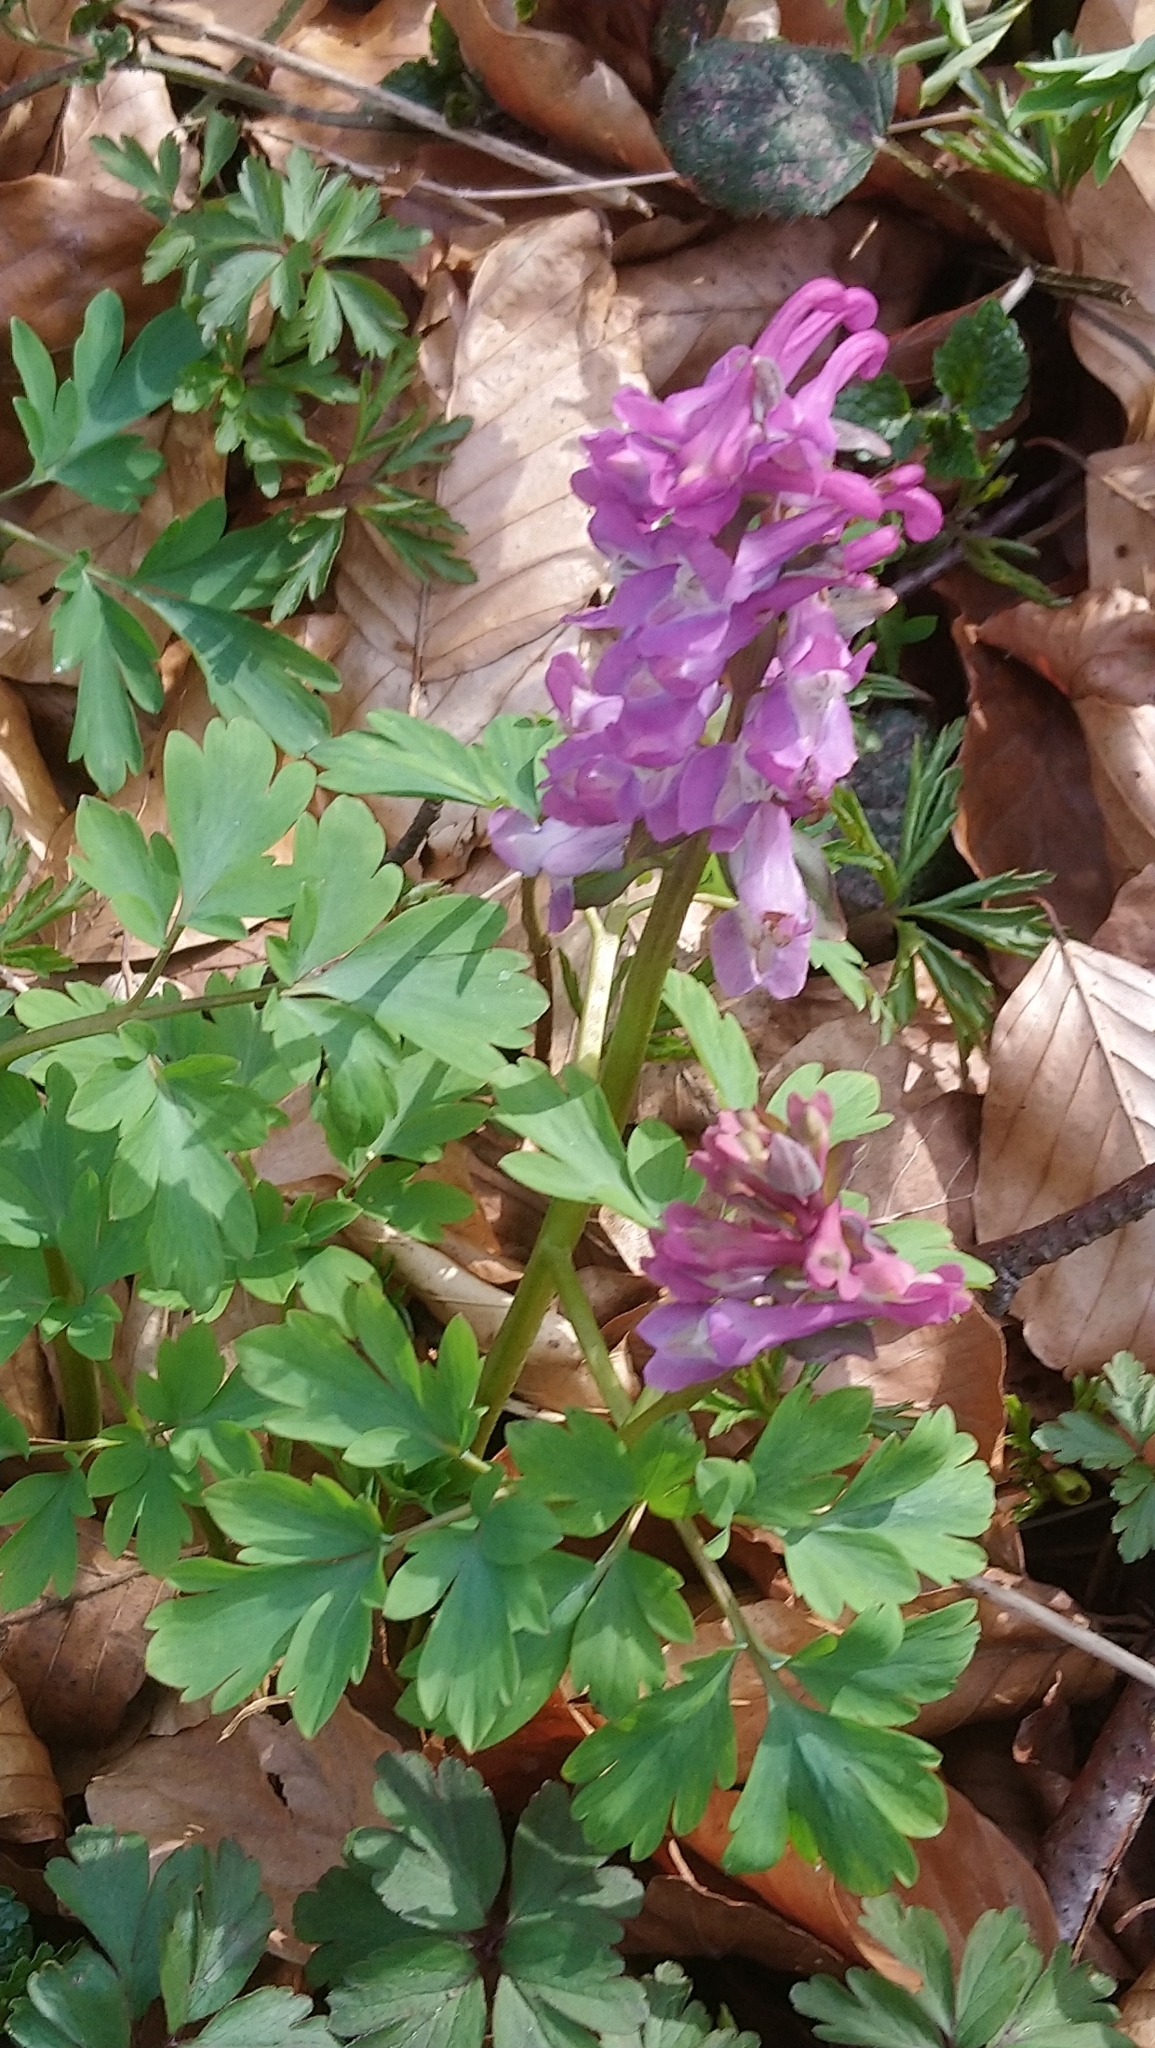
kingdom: Plantae
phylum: Tracheophyta
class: Magnoliopsida
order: Ranunculales
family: Papaveraceae
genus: Corydalis
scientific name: Corydalis cava
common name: Hollowroot
